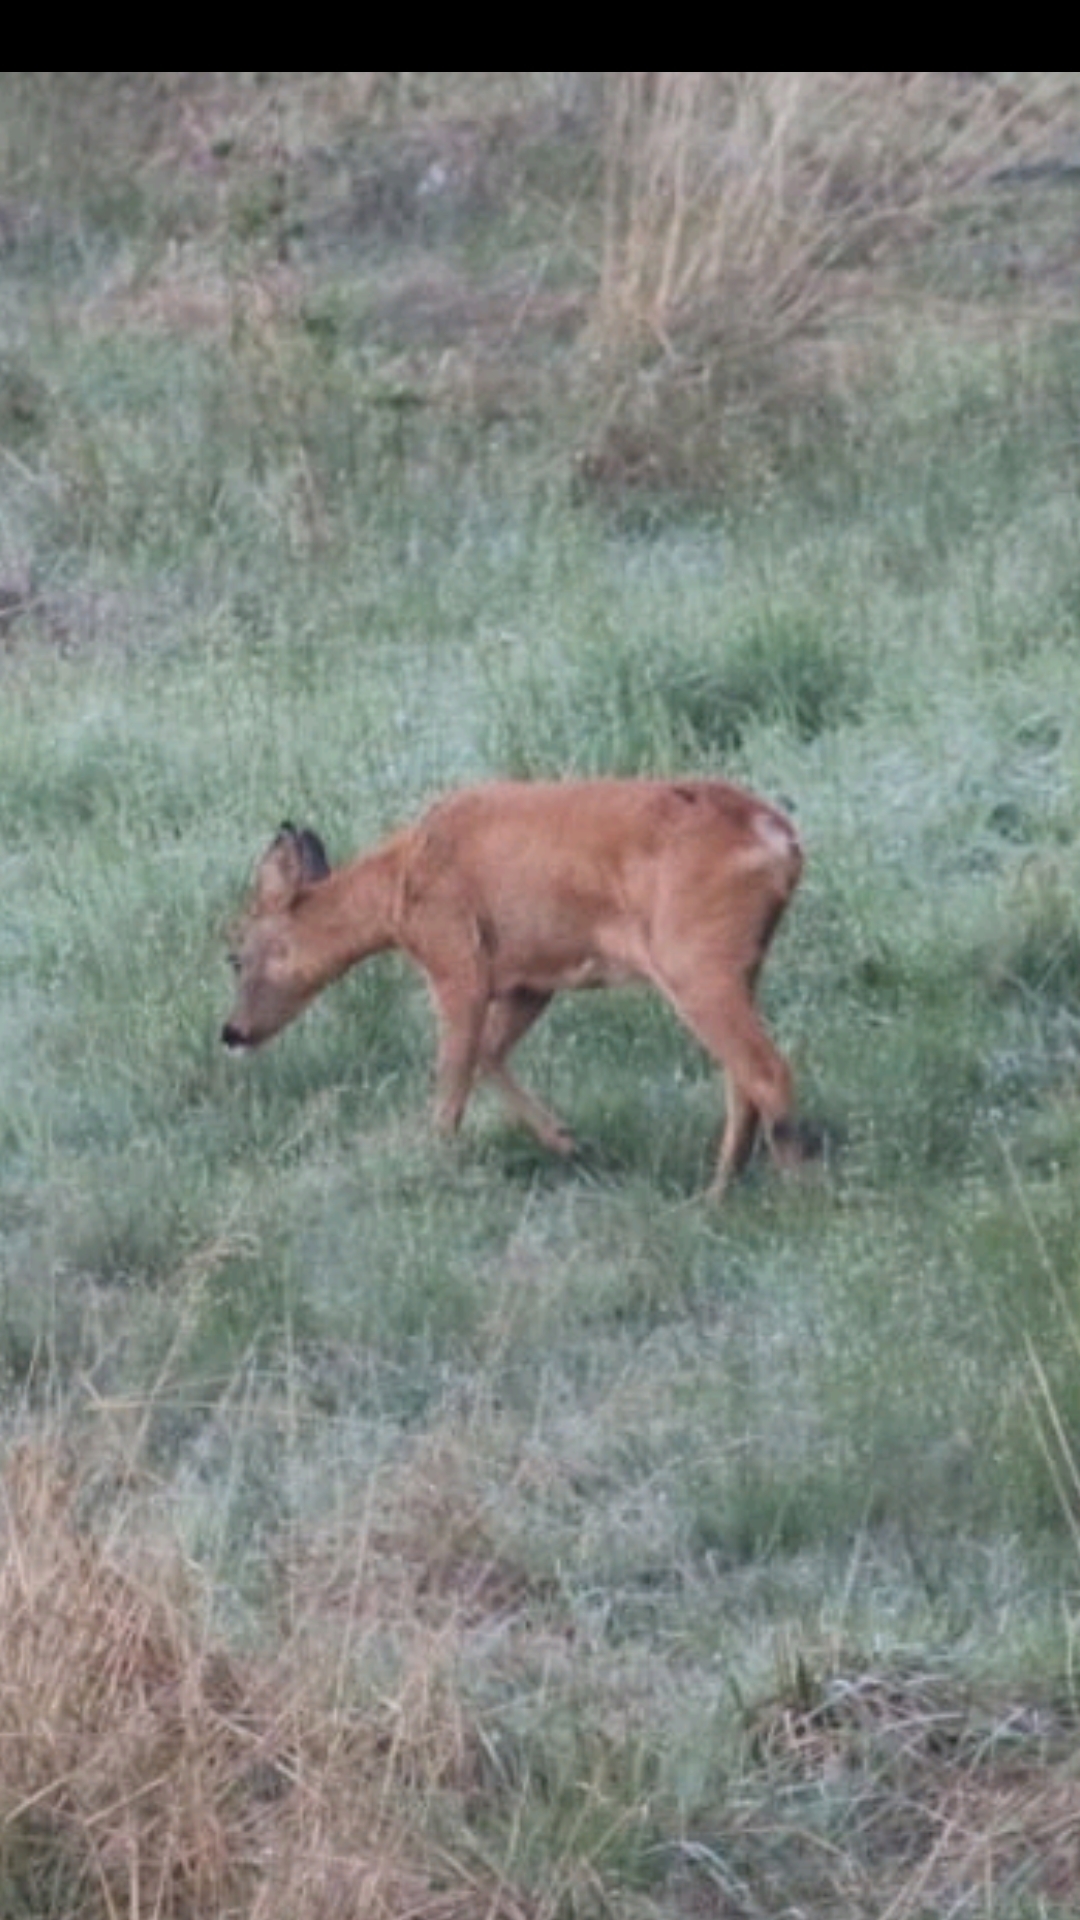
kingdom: Animalia
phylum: Chordata
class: Mammalia
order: Artiodactyla
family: Cervidae
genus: Capreolus
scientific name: Capreolus capreolus
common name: Western roe deer
